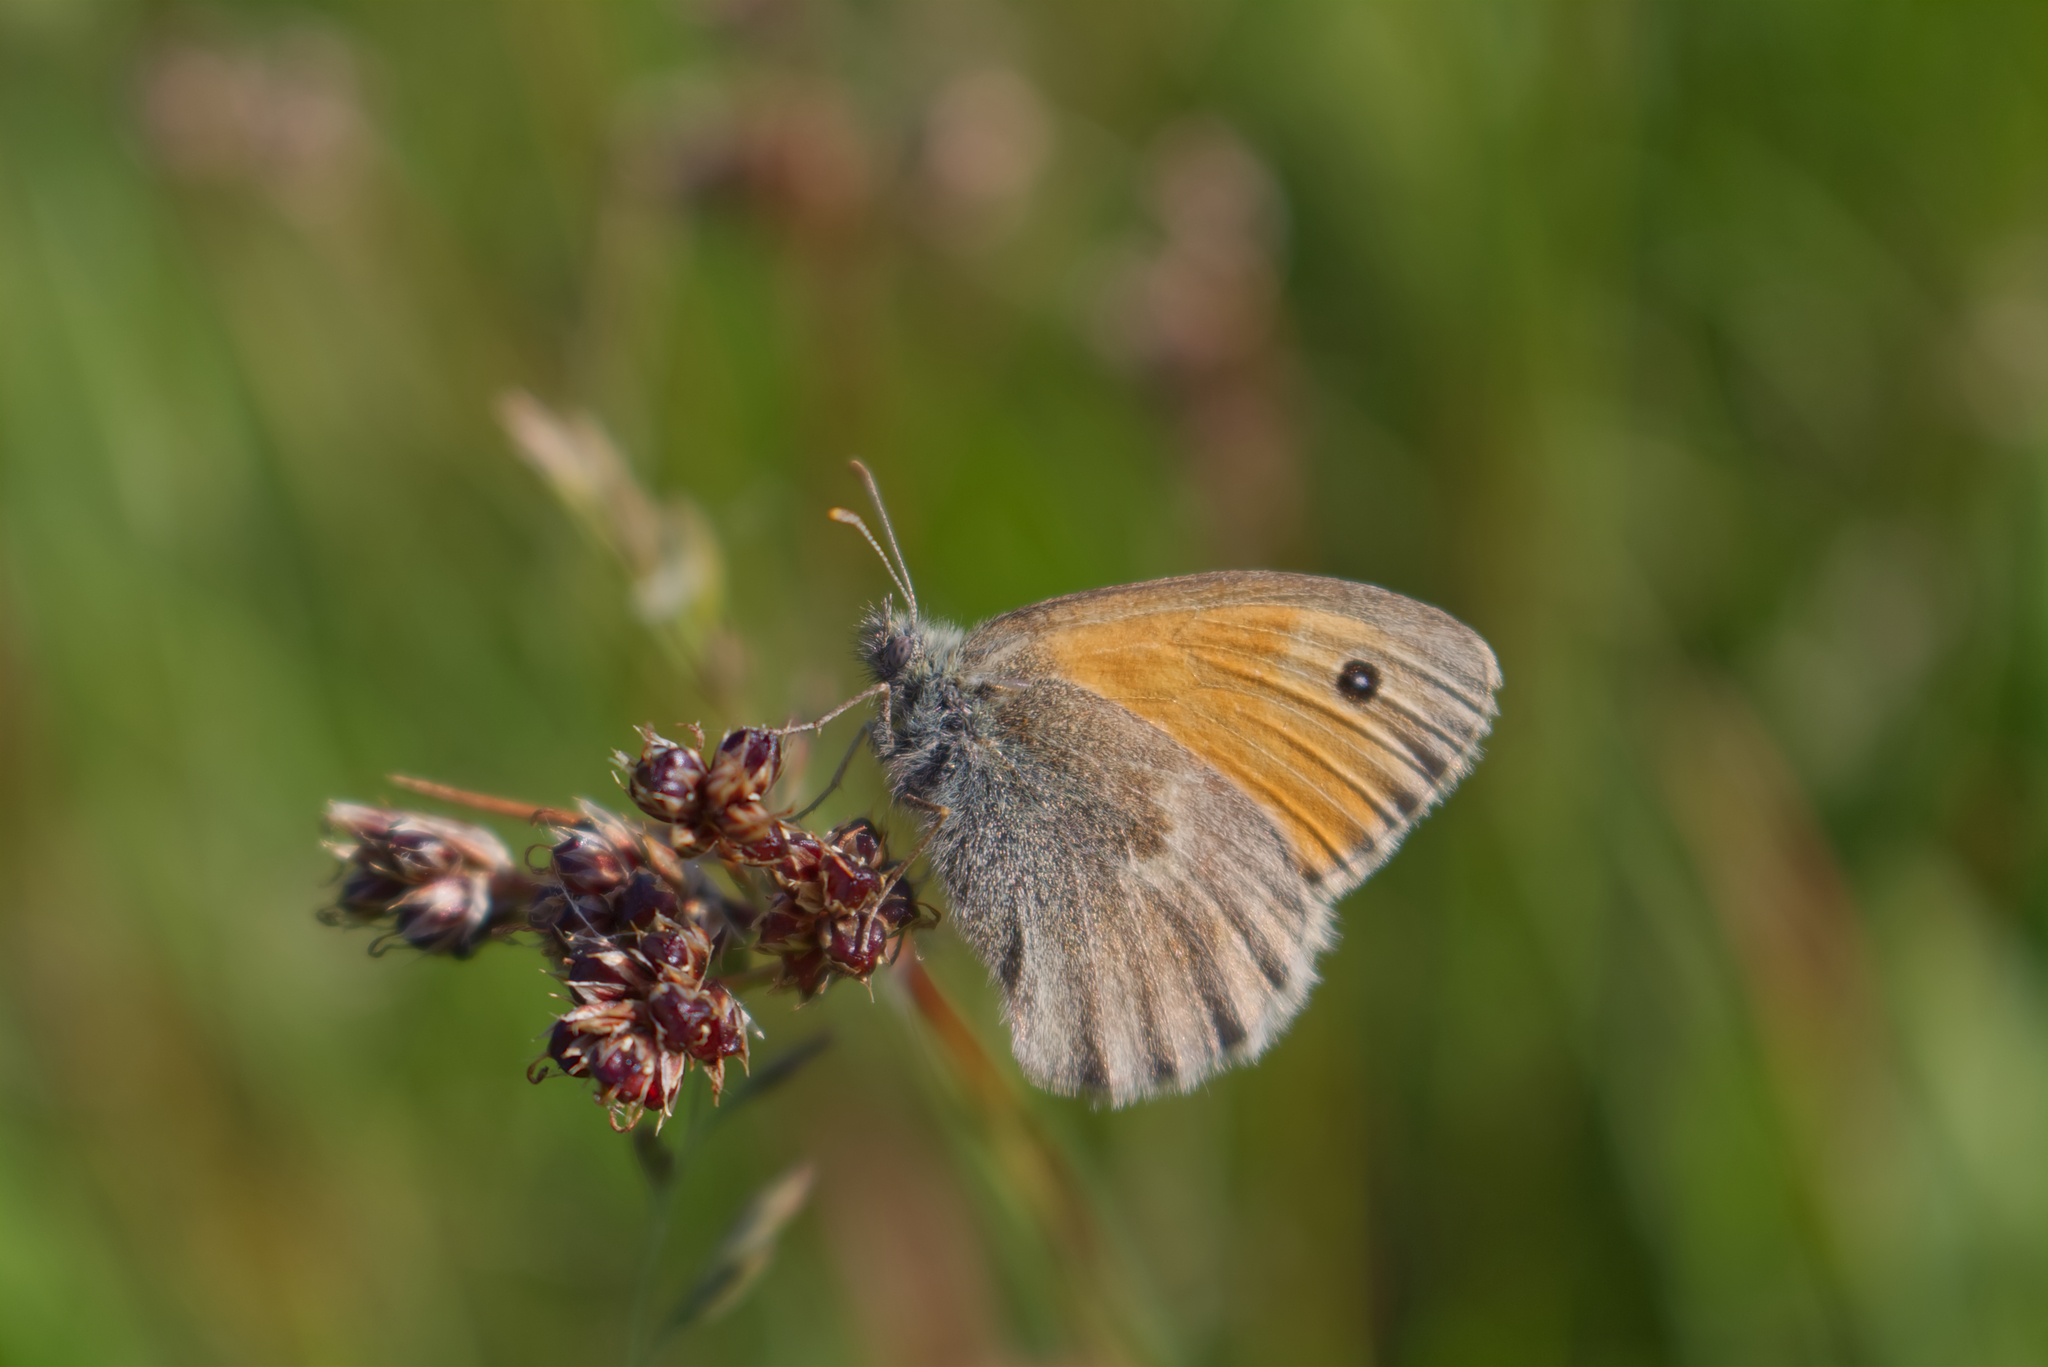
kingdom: Animalia
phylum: Arthropoda
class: Insecta
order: Lepidoptera
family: Nymphalidae
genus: Coenonympha
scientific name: Coenonympha pamphilus
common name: Small heath
